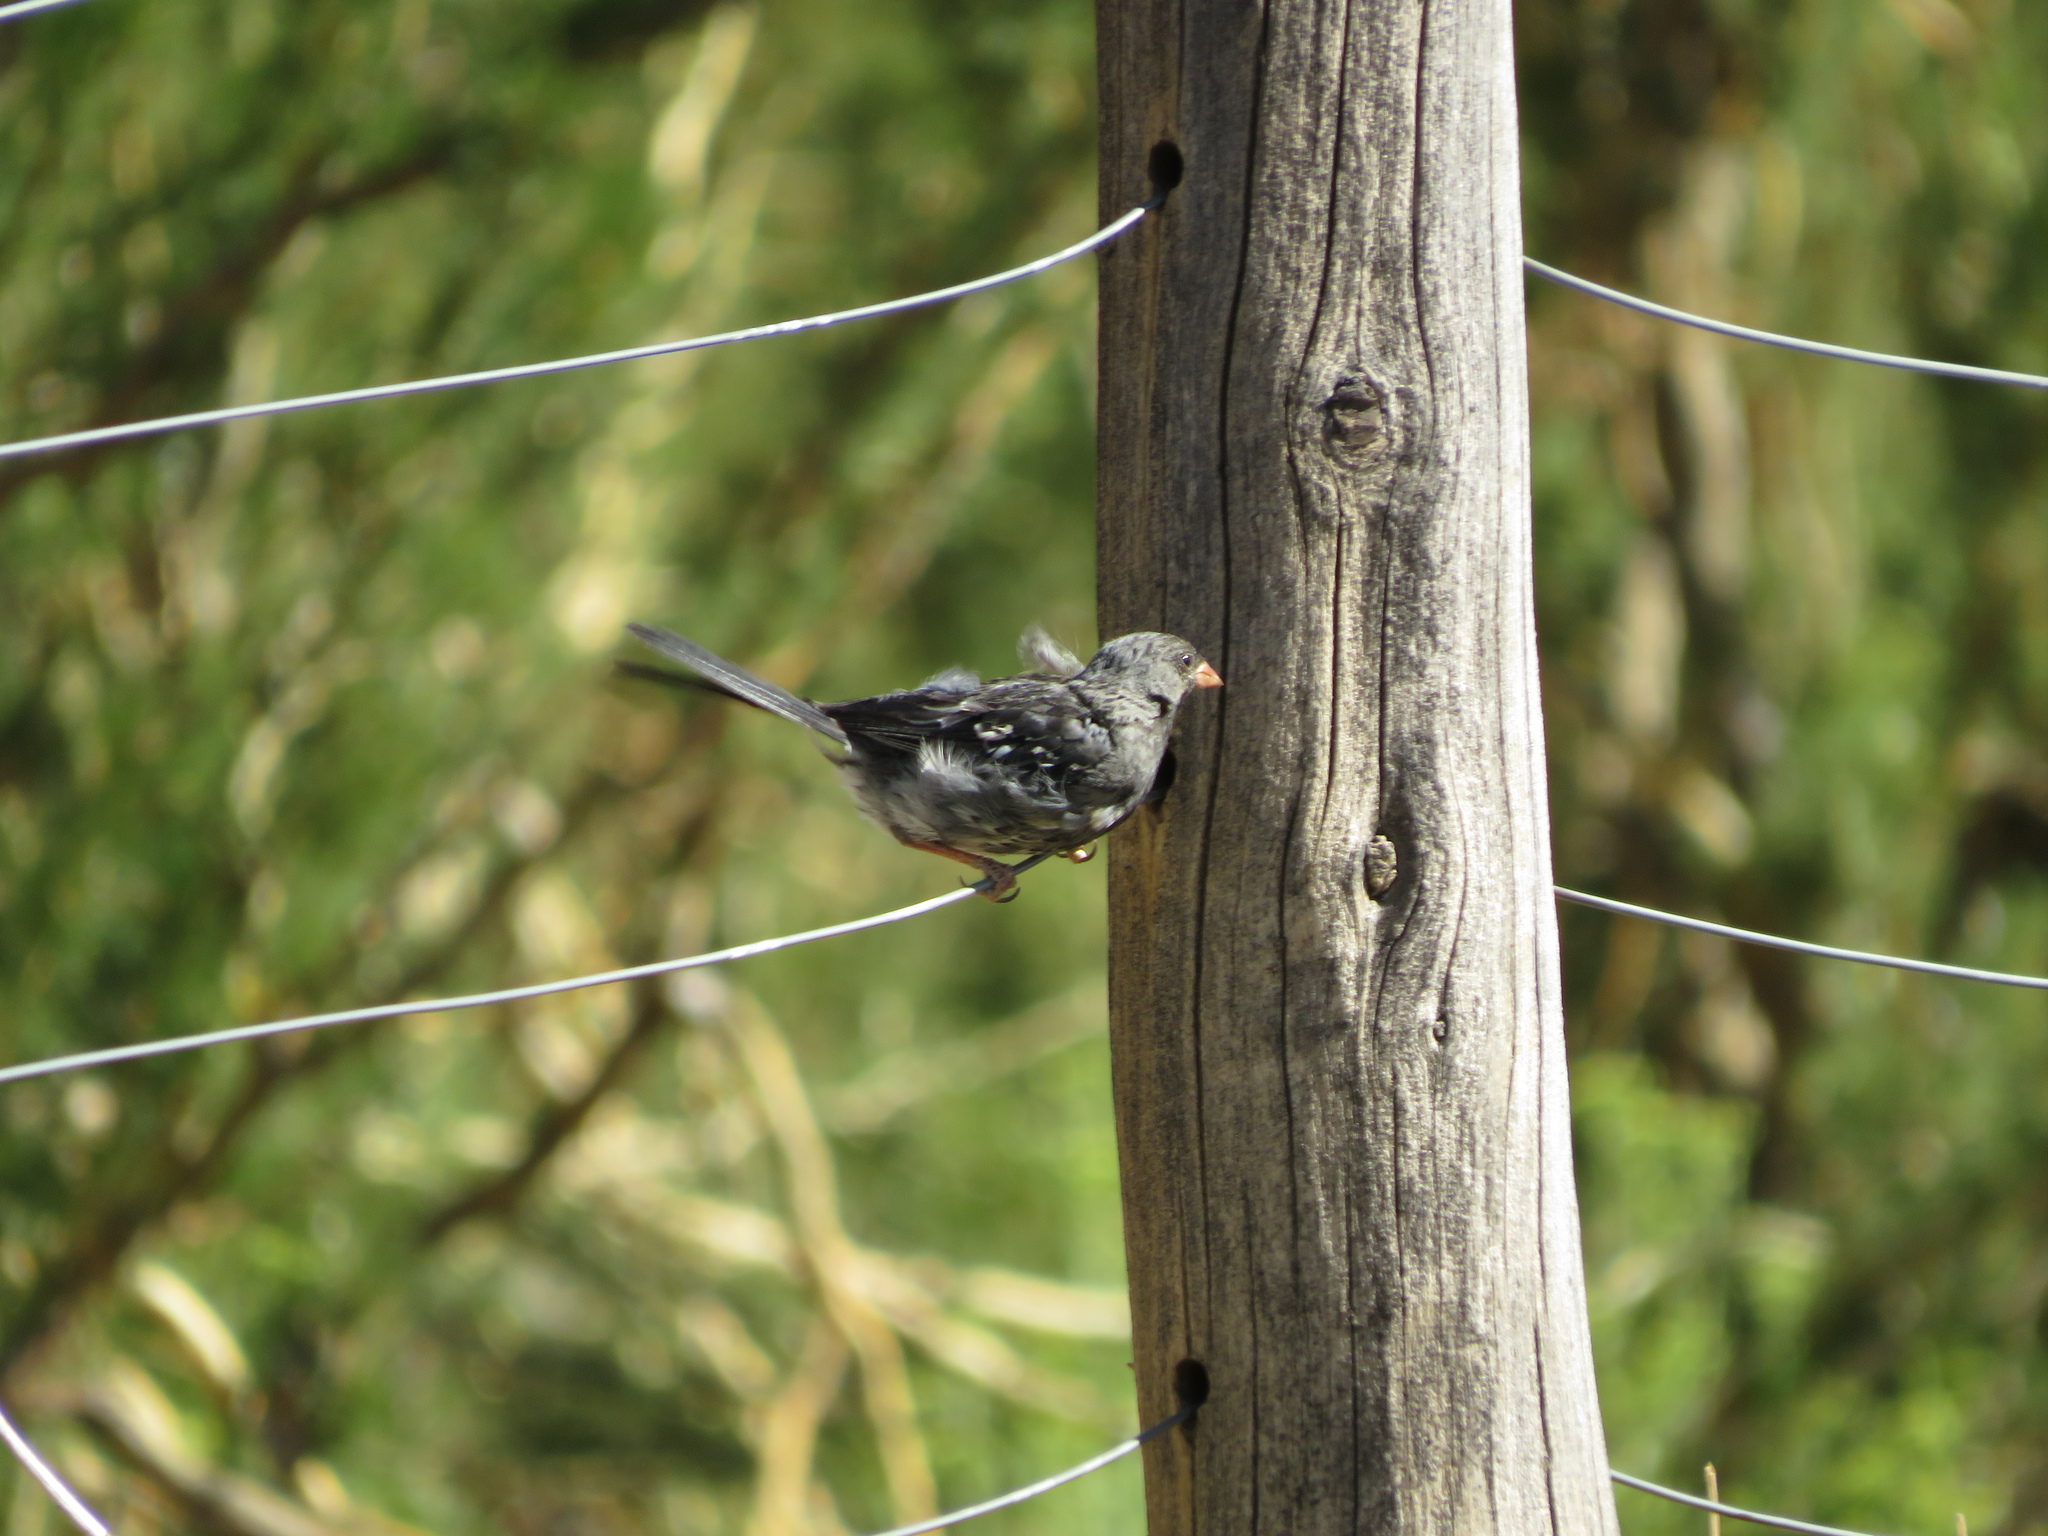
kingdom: Animalia
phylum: Chordata
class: Aves
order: Passeriformes
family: Thraupidae
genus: Rhopospina
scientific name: Rhopospina fruticeti
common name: Mourning sierra finch
